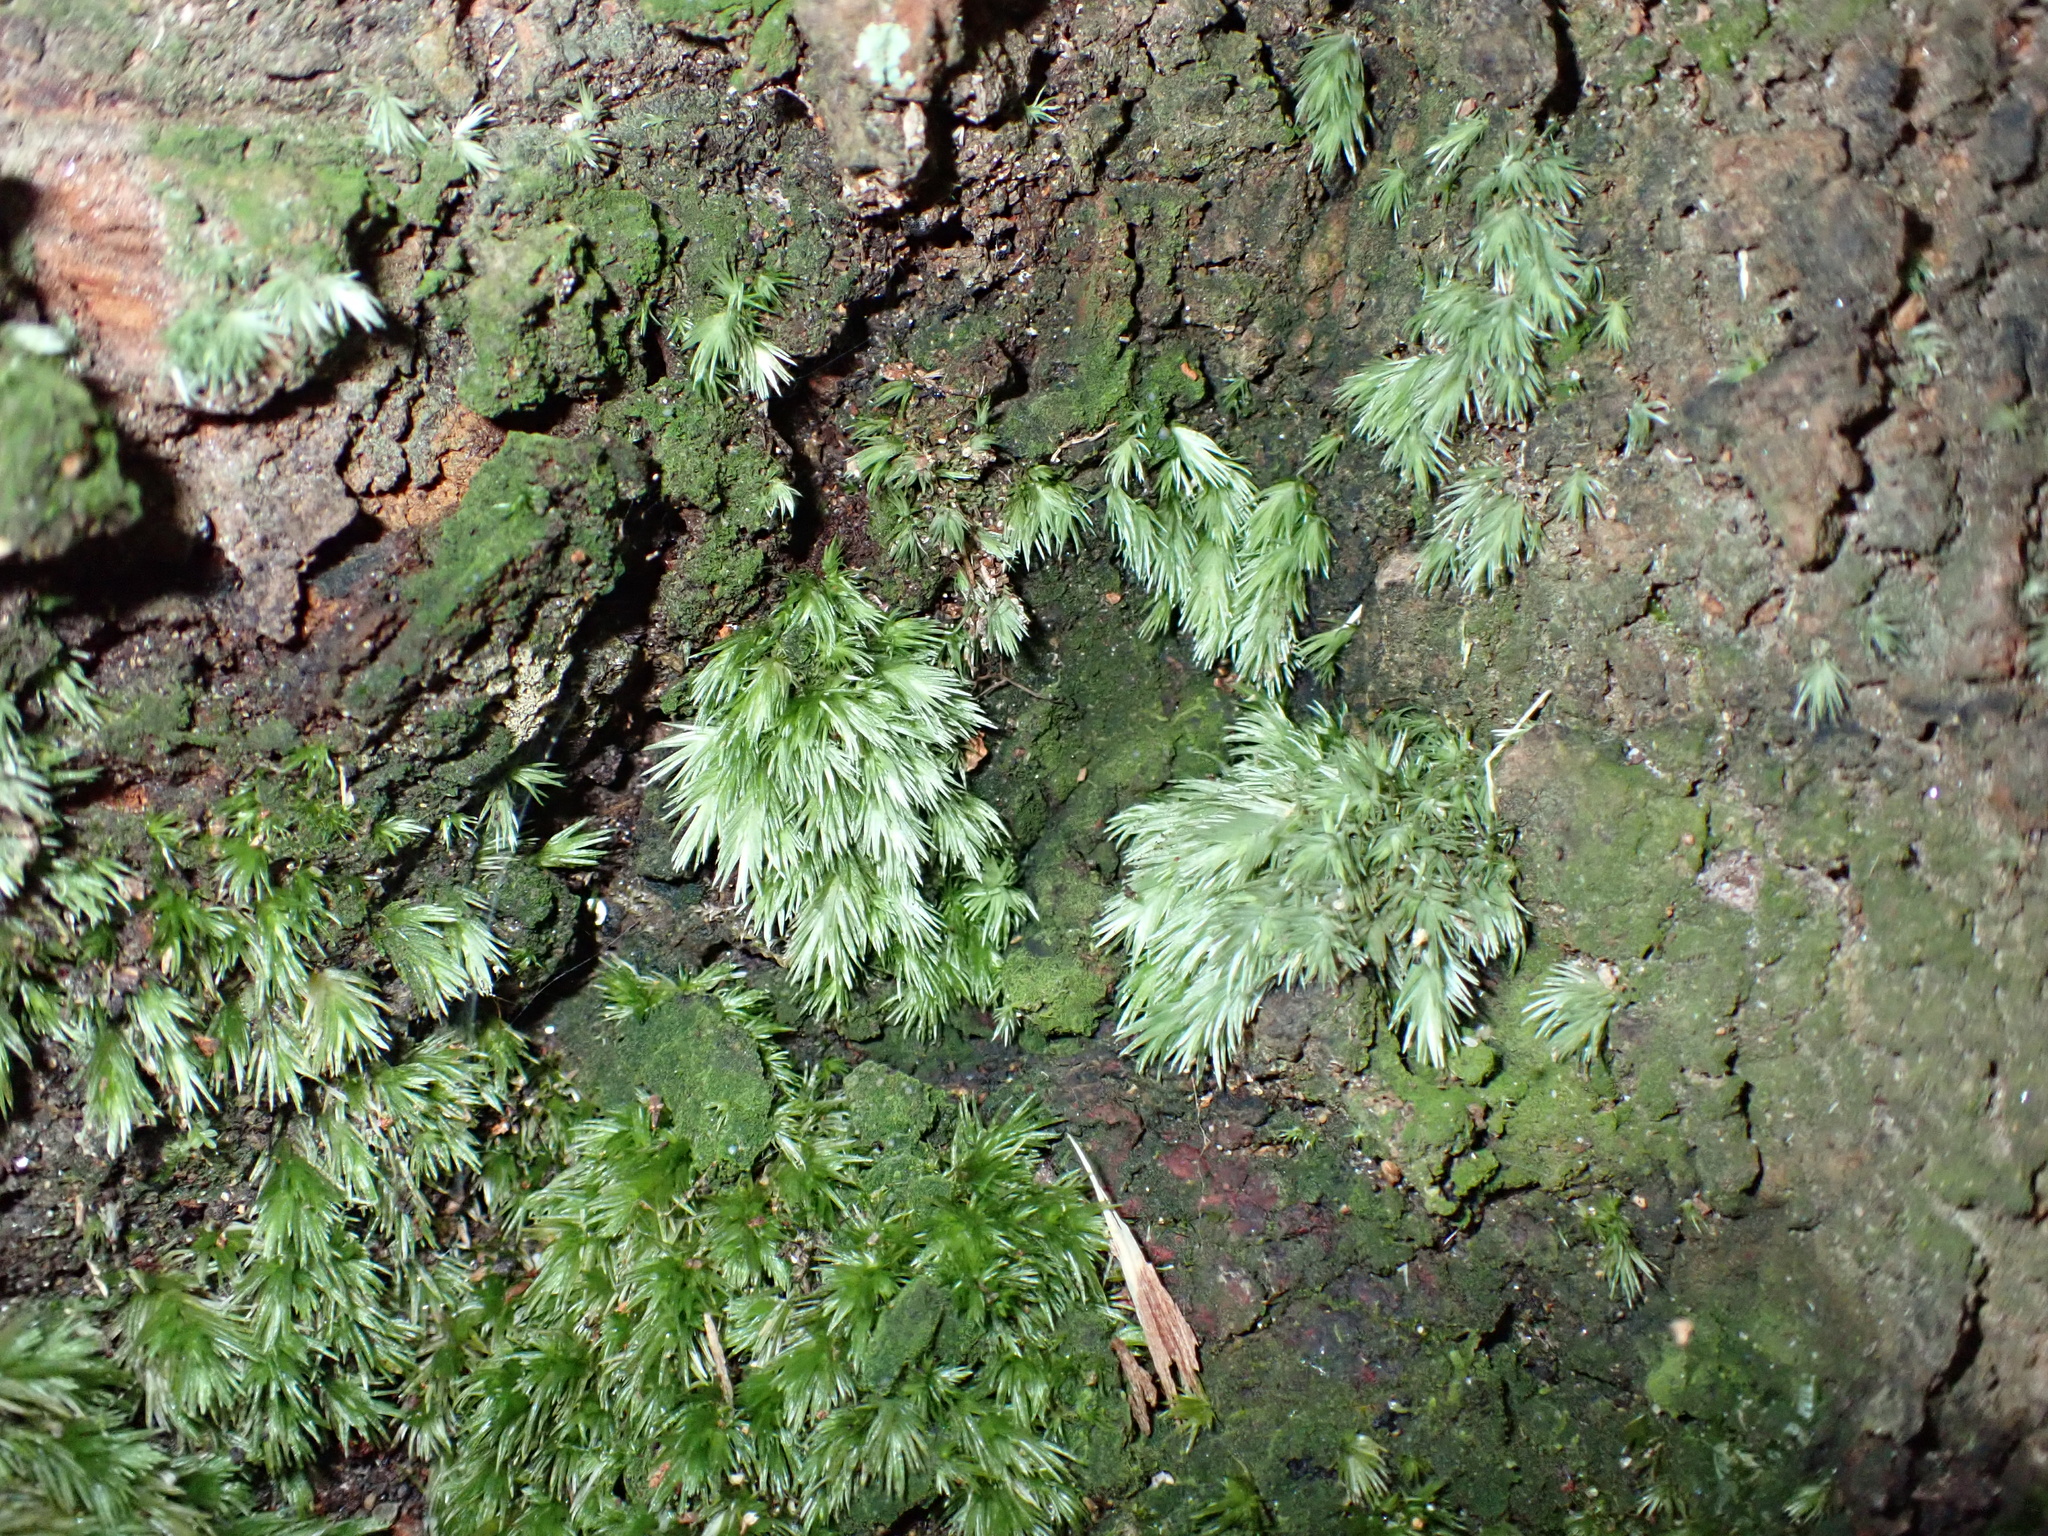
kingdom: Plantae
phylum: Bryophyta
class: Bryopsida
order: Dicranales
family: Leucobryaceae
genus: Leucobryum
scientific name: Leucobryum javense
